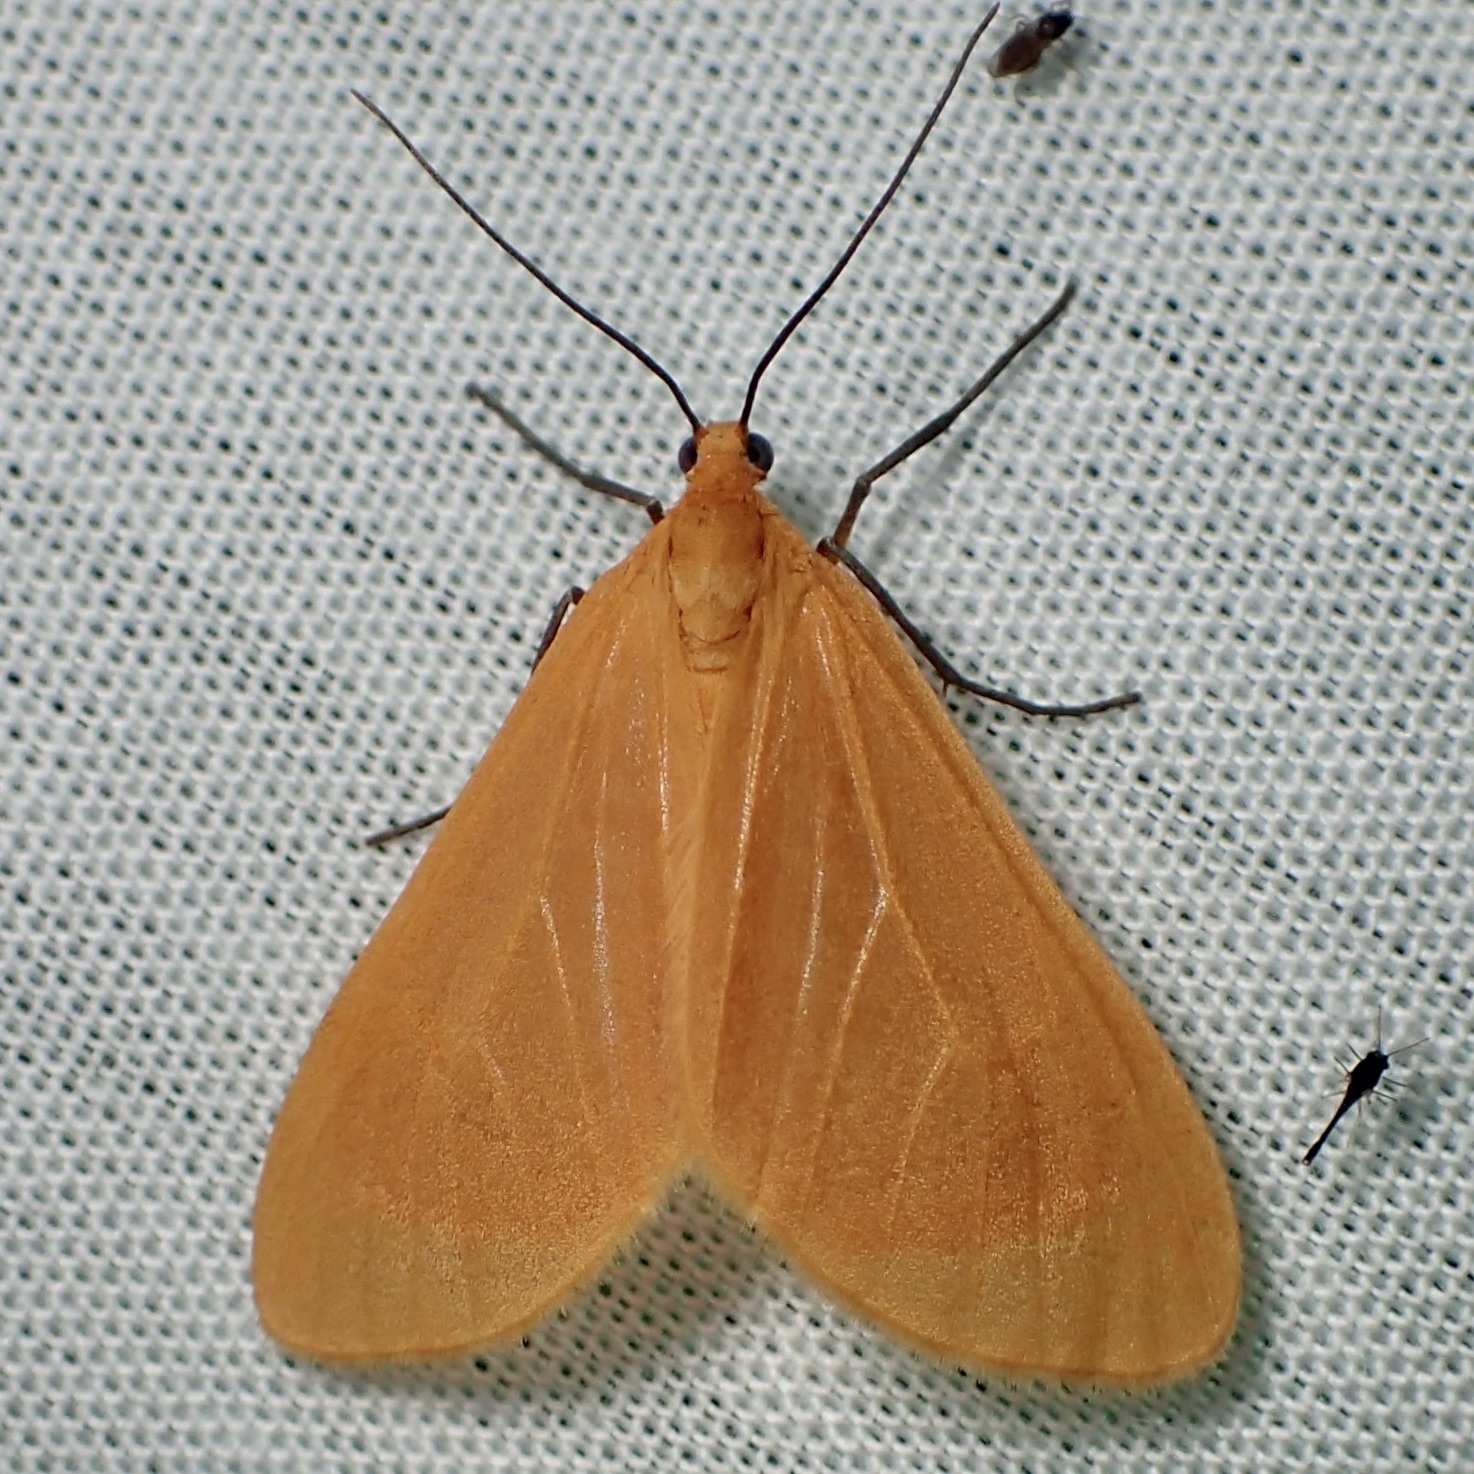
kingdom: Animalia
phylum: Arthropoda
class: Insecta
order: Lepidoptera
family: Geometridae
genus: Eubaphe
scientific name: Eubaphe unicolor
